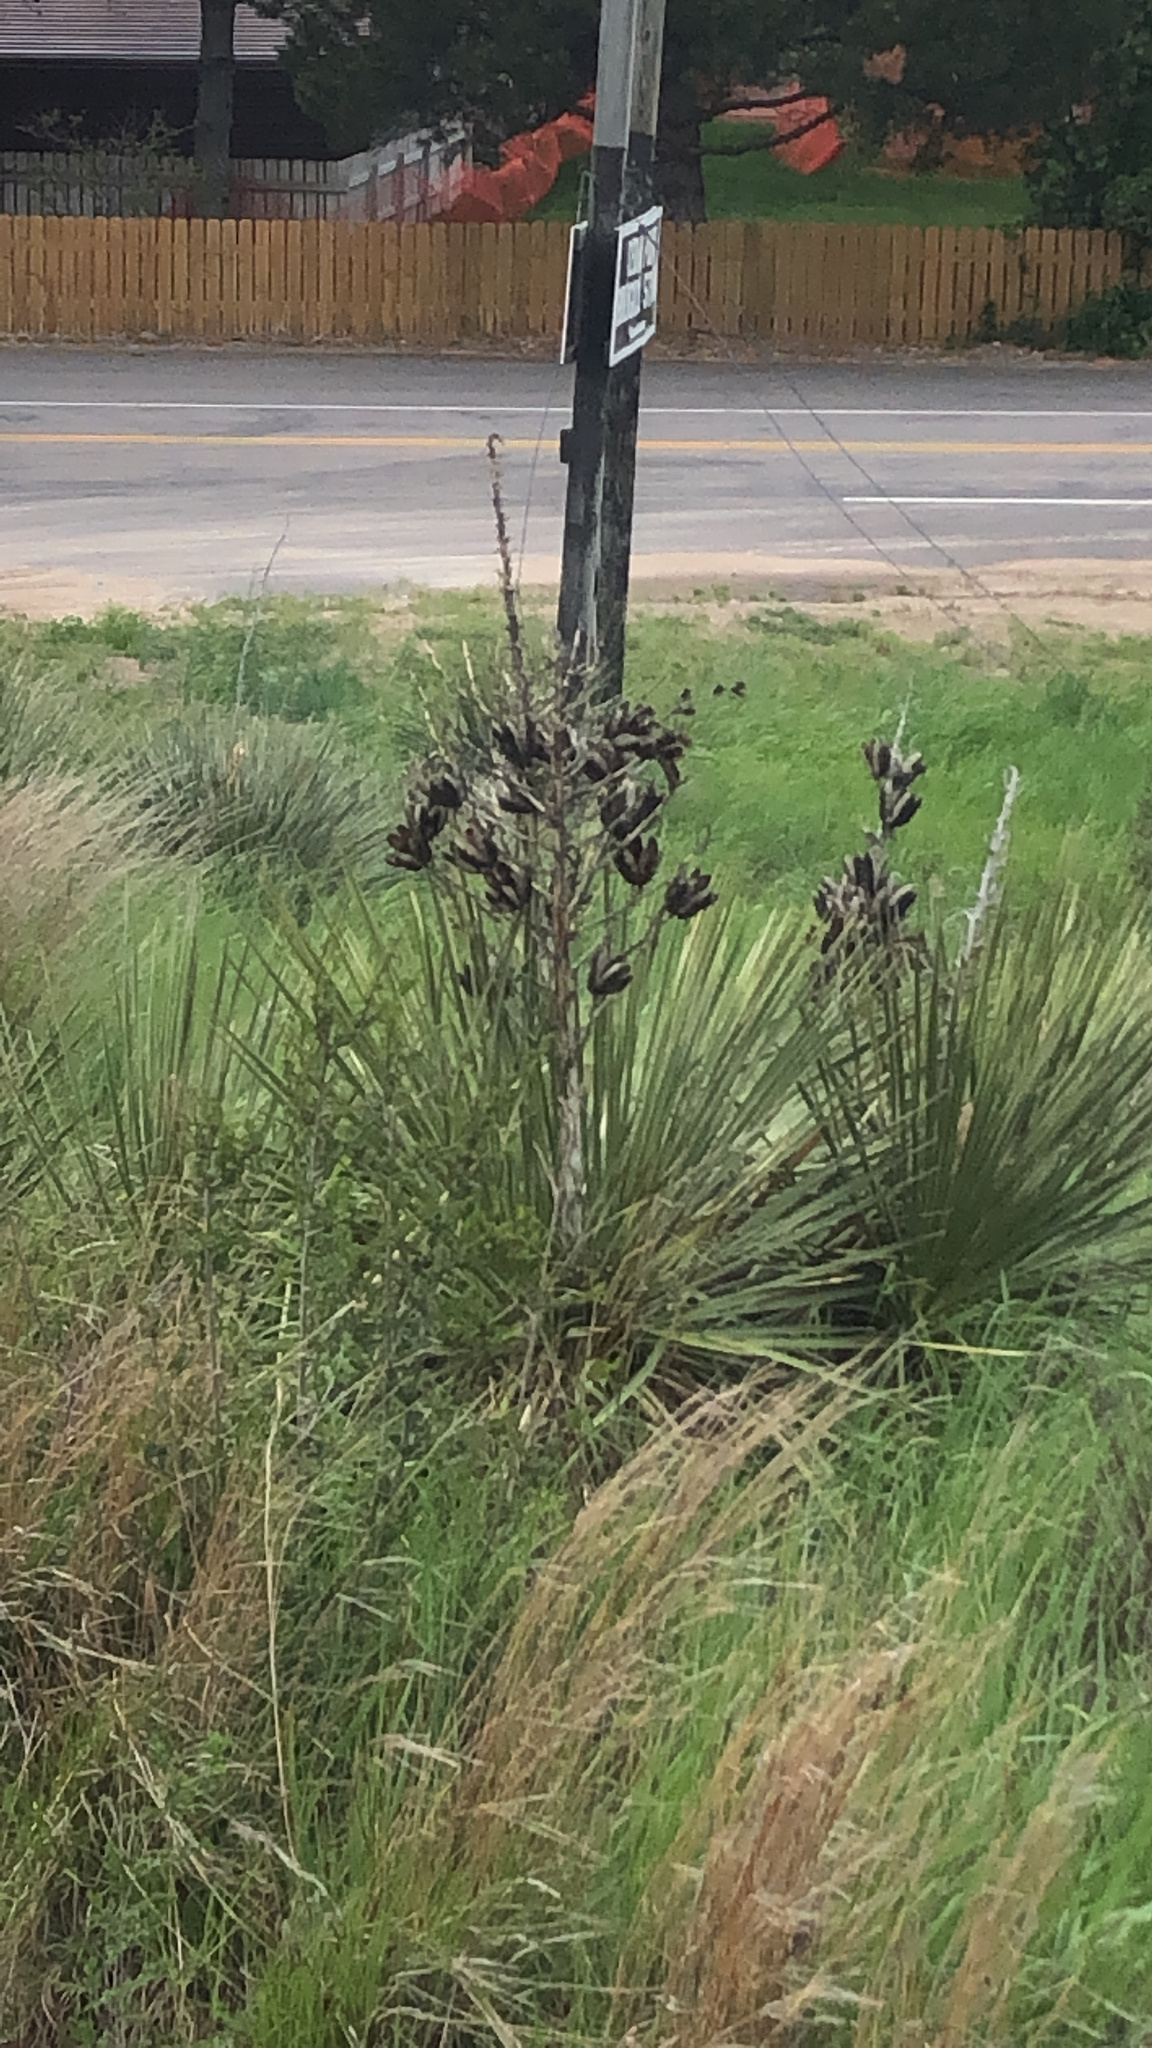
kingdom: Plantae
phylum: Tracheophyta
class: Liliopsida
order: Asparagales
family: Asparagaceae
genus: Yucca
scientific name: Yucca glauca
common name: Great plains yucca
